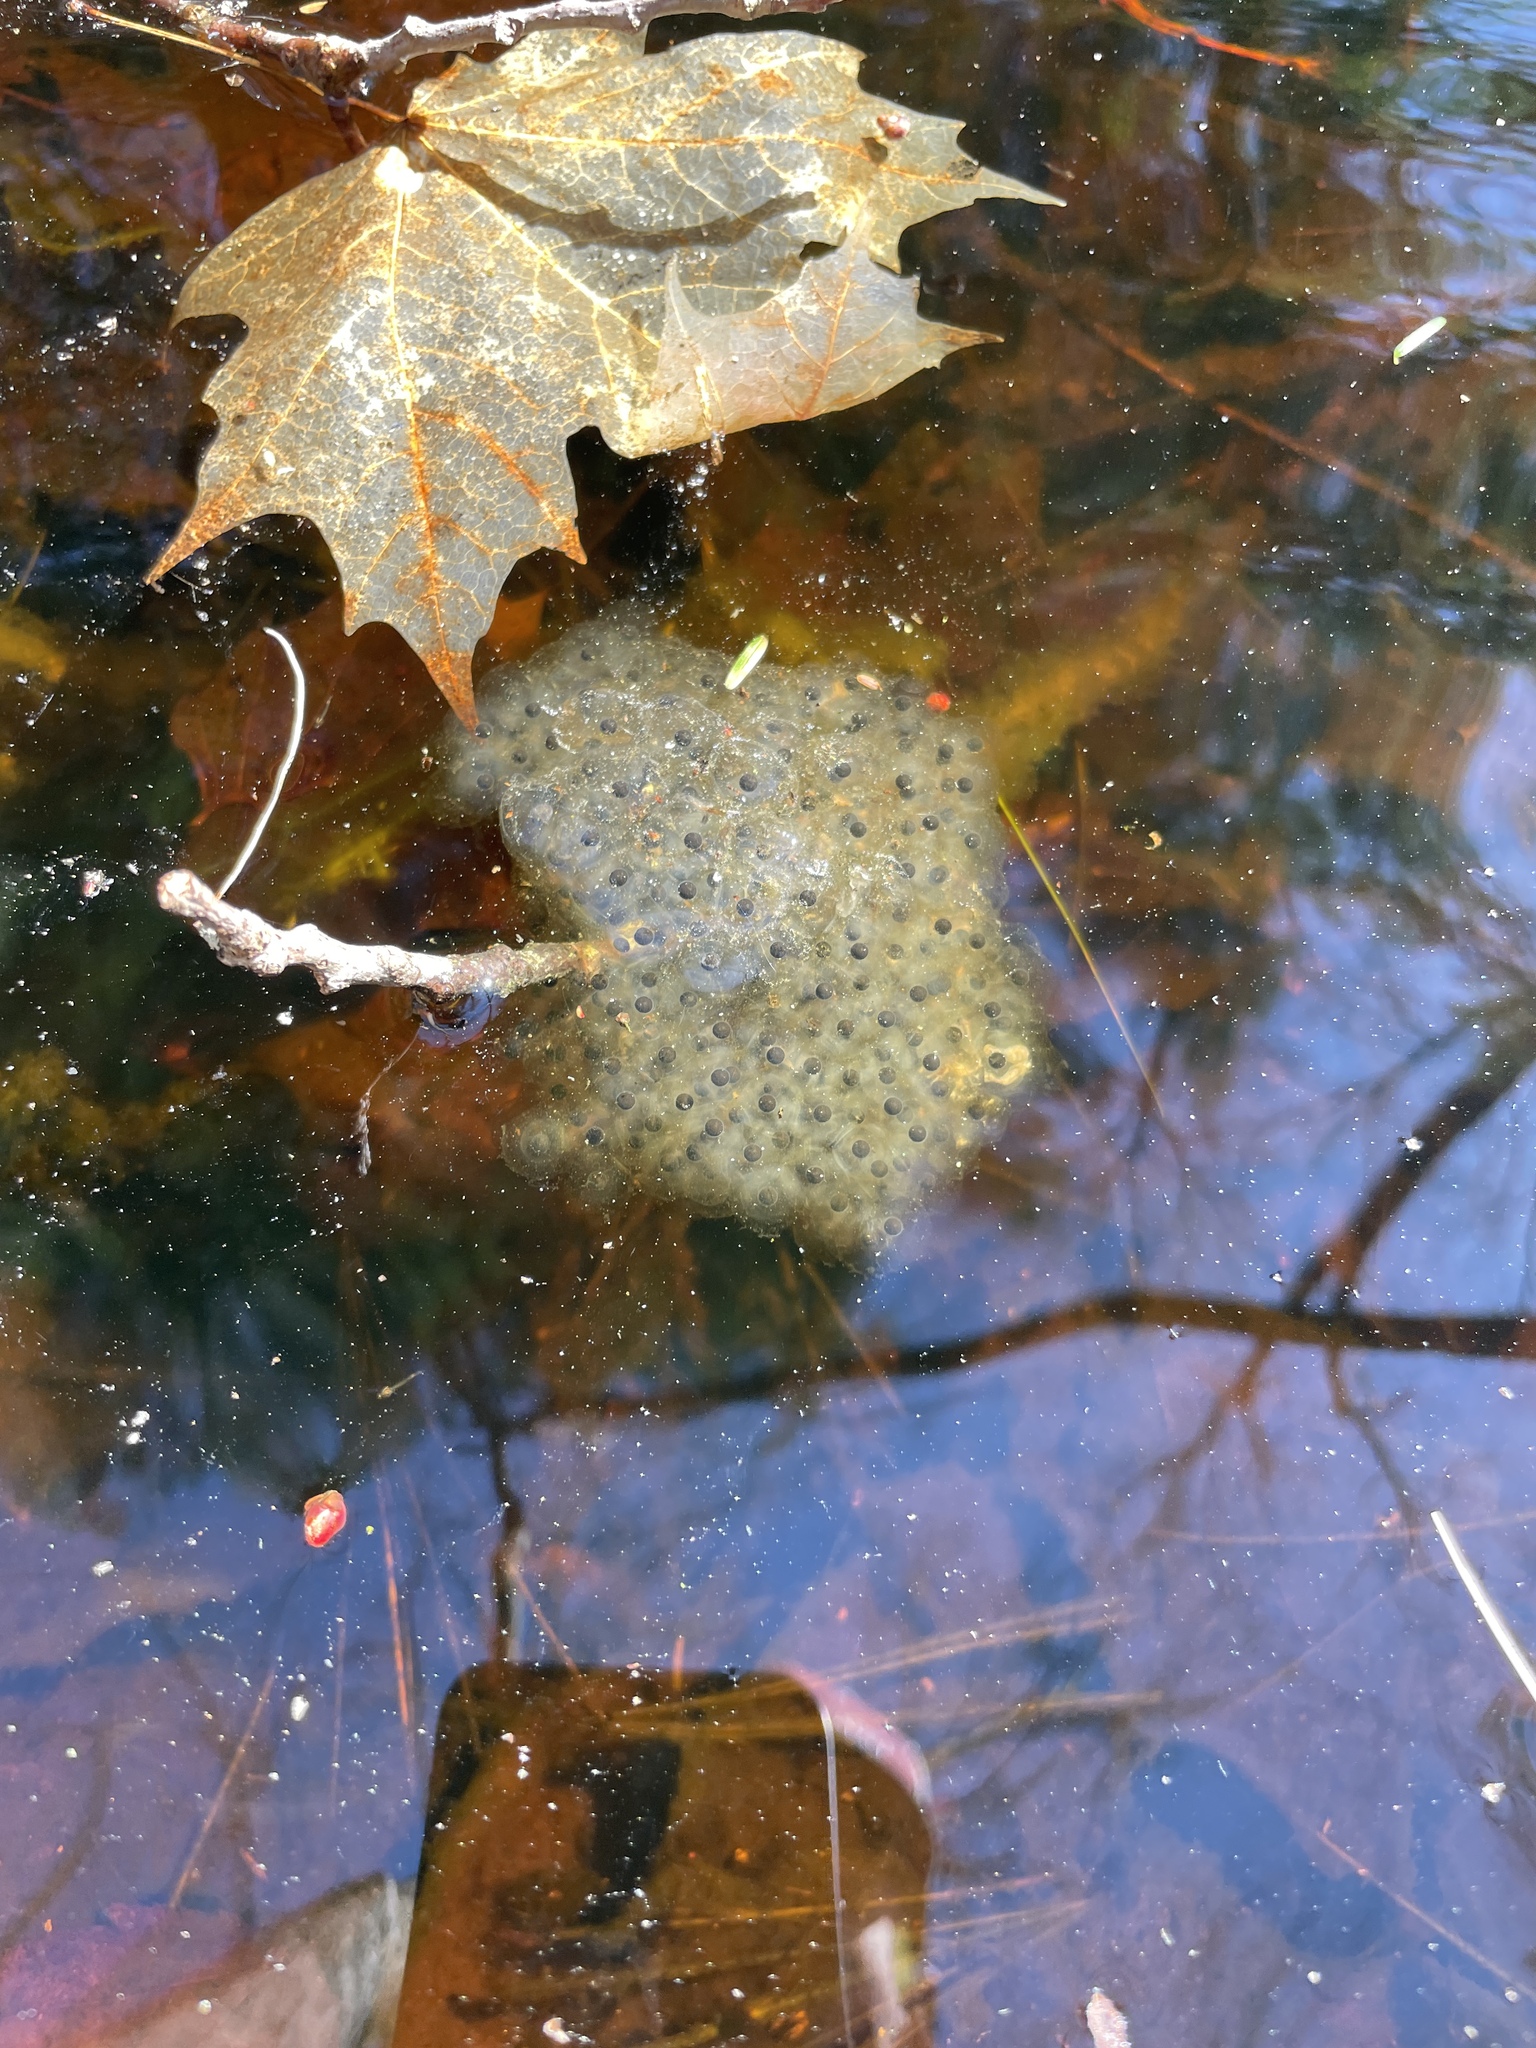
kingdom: Animalia
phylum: Chordata
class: Amphibia
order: Anura
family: Ranidae
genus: Lithobates
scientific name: Lithobates sylvaticus
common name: Wood frog
